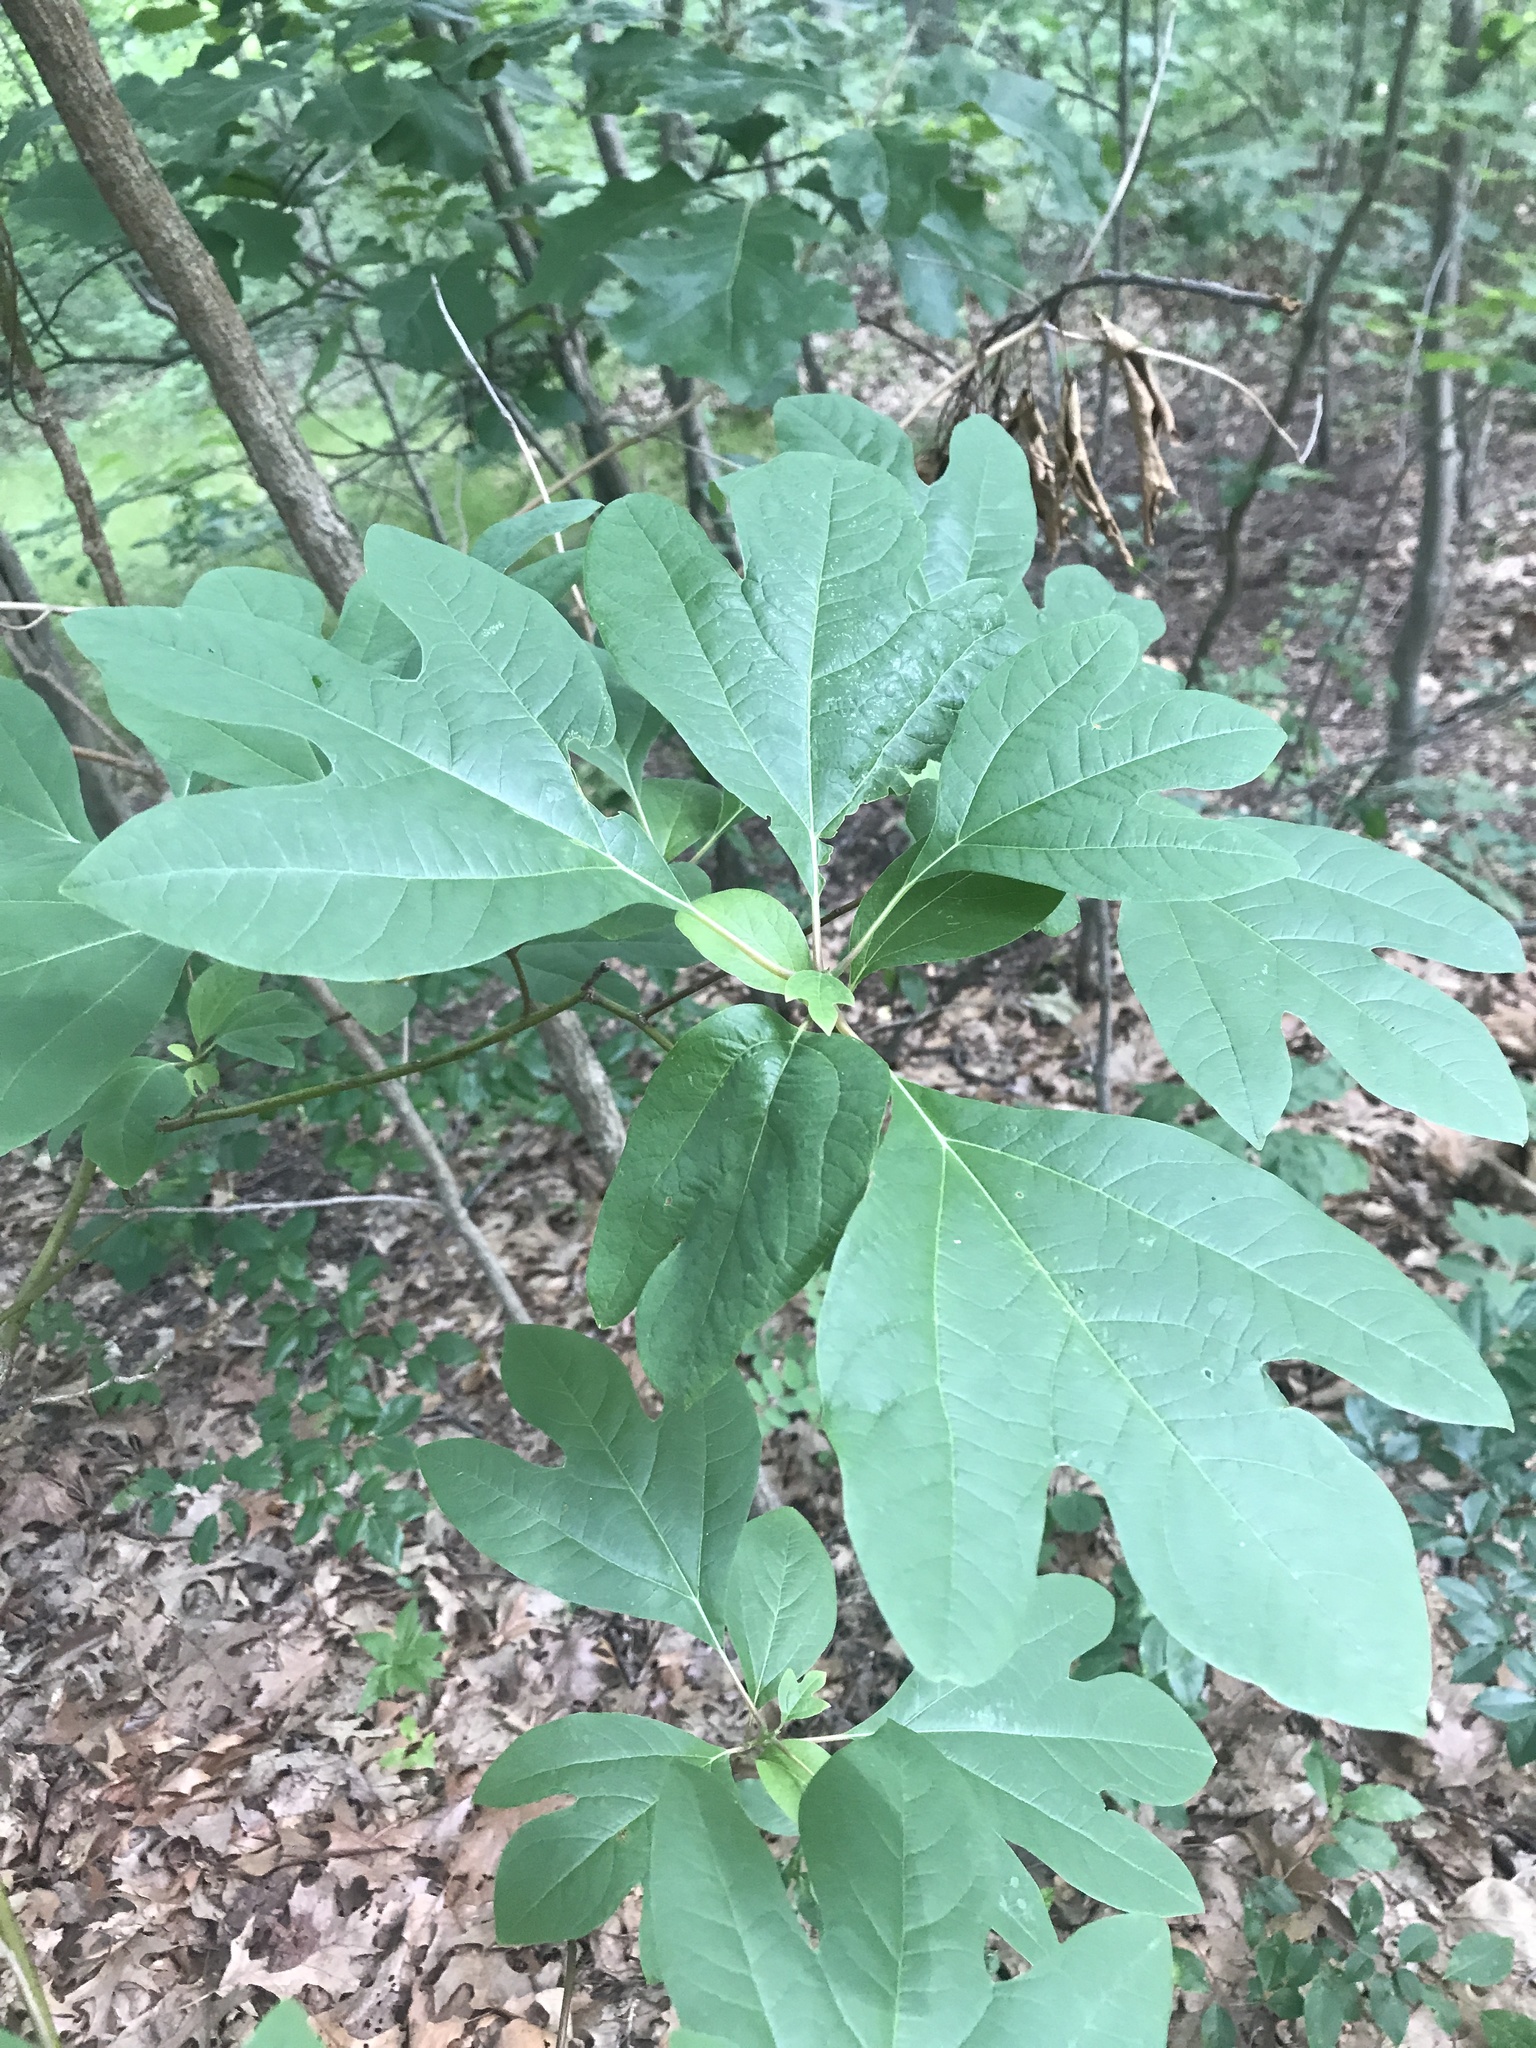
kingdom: Plantae
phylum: Tracheophyta
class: Magnoliopsida
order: Laurales
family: Lauraceae
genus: Sassafras
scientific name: Sassafras albidum
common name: Sassafras
